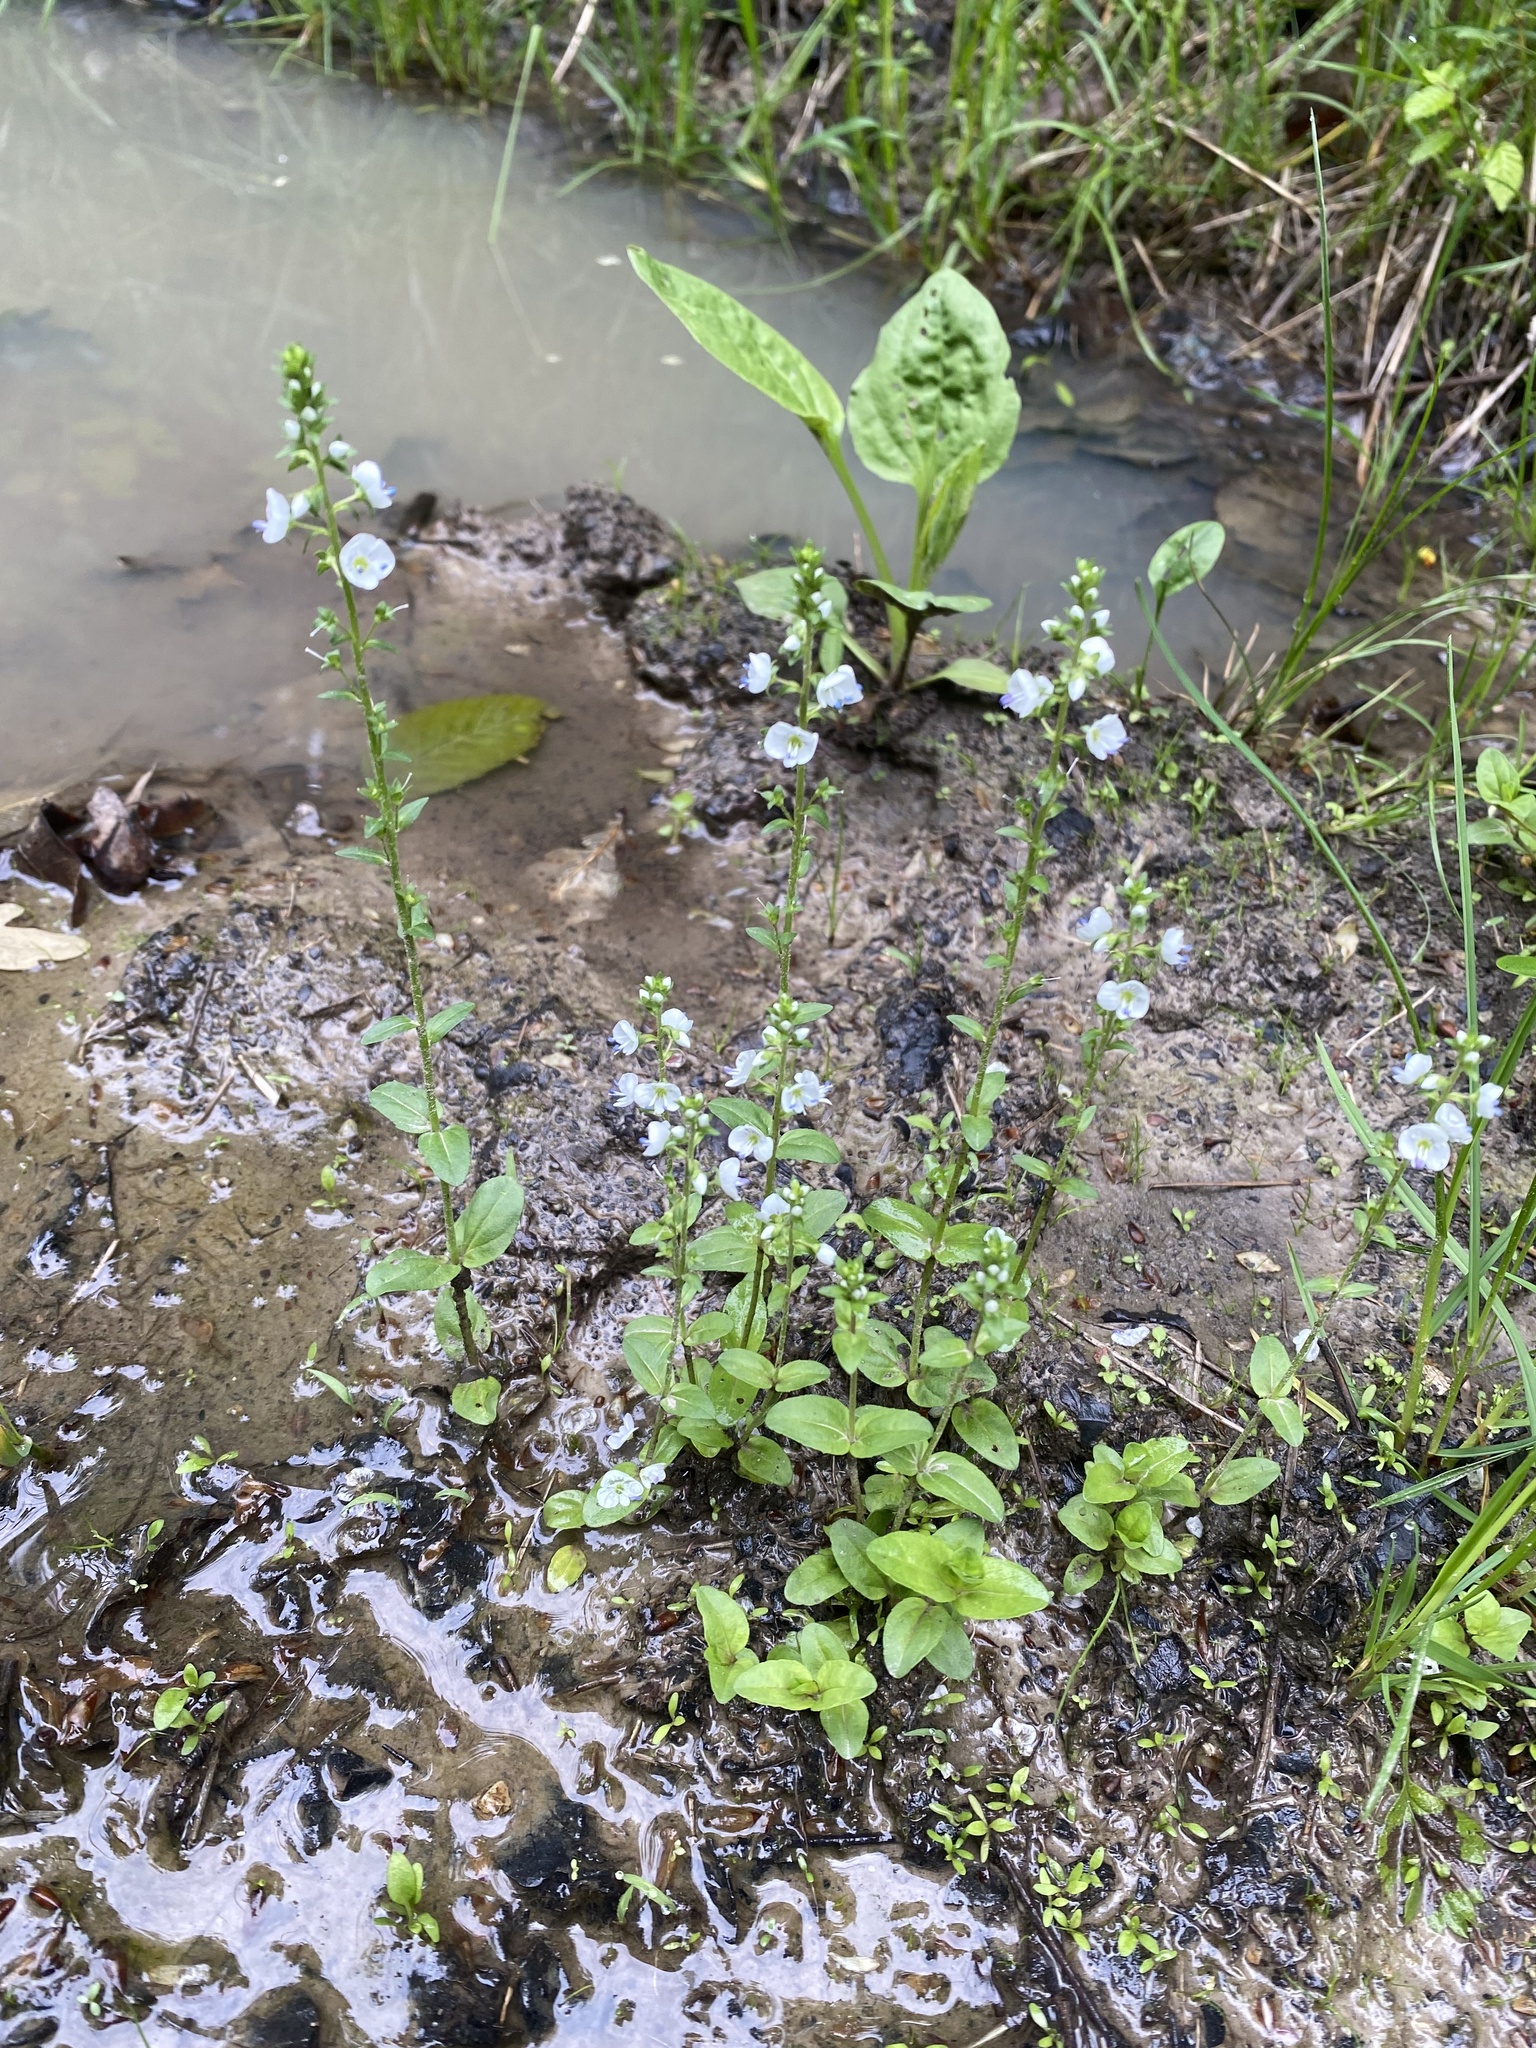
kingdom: Plantae
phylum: Tracheophyta
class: Magnoliopsida
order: Lamiales
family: Plantaginaceae
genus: Veronica
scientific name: Veronica serpyllifolia
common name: Thyme-leaved speedwell
